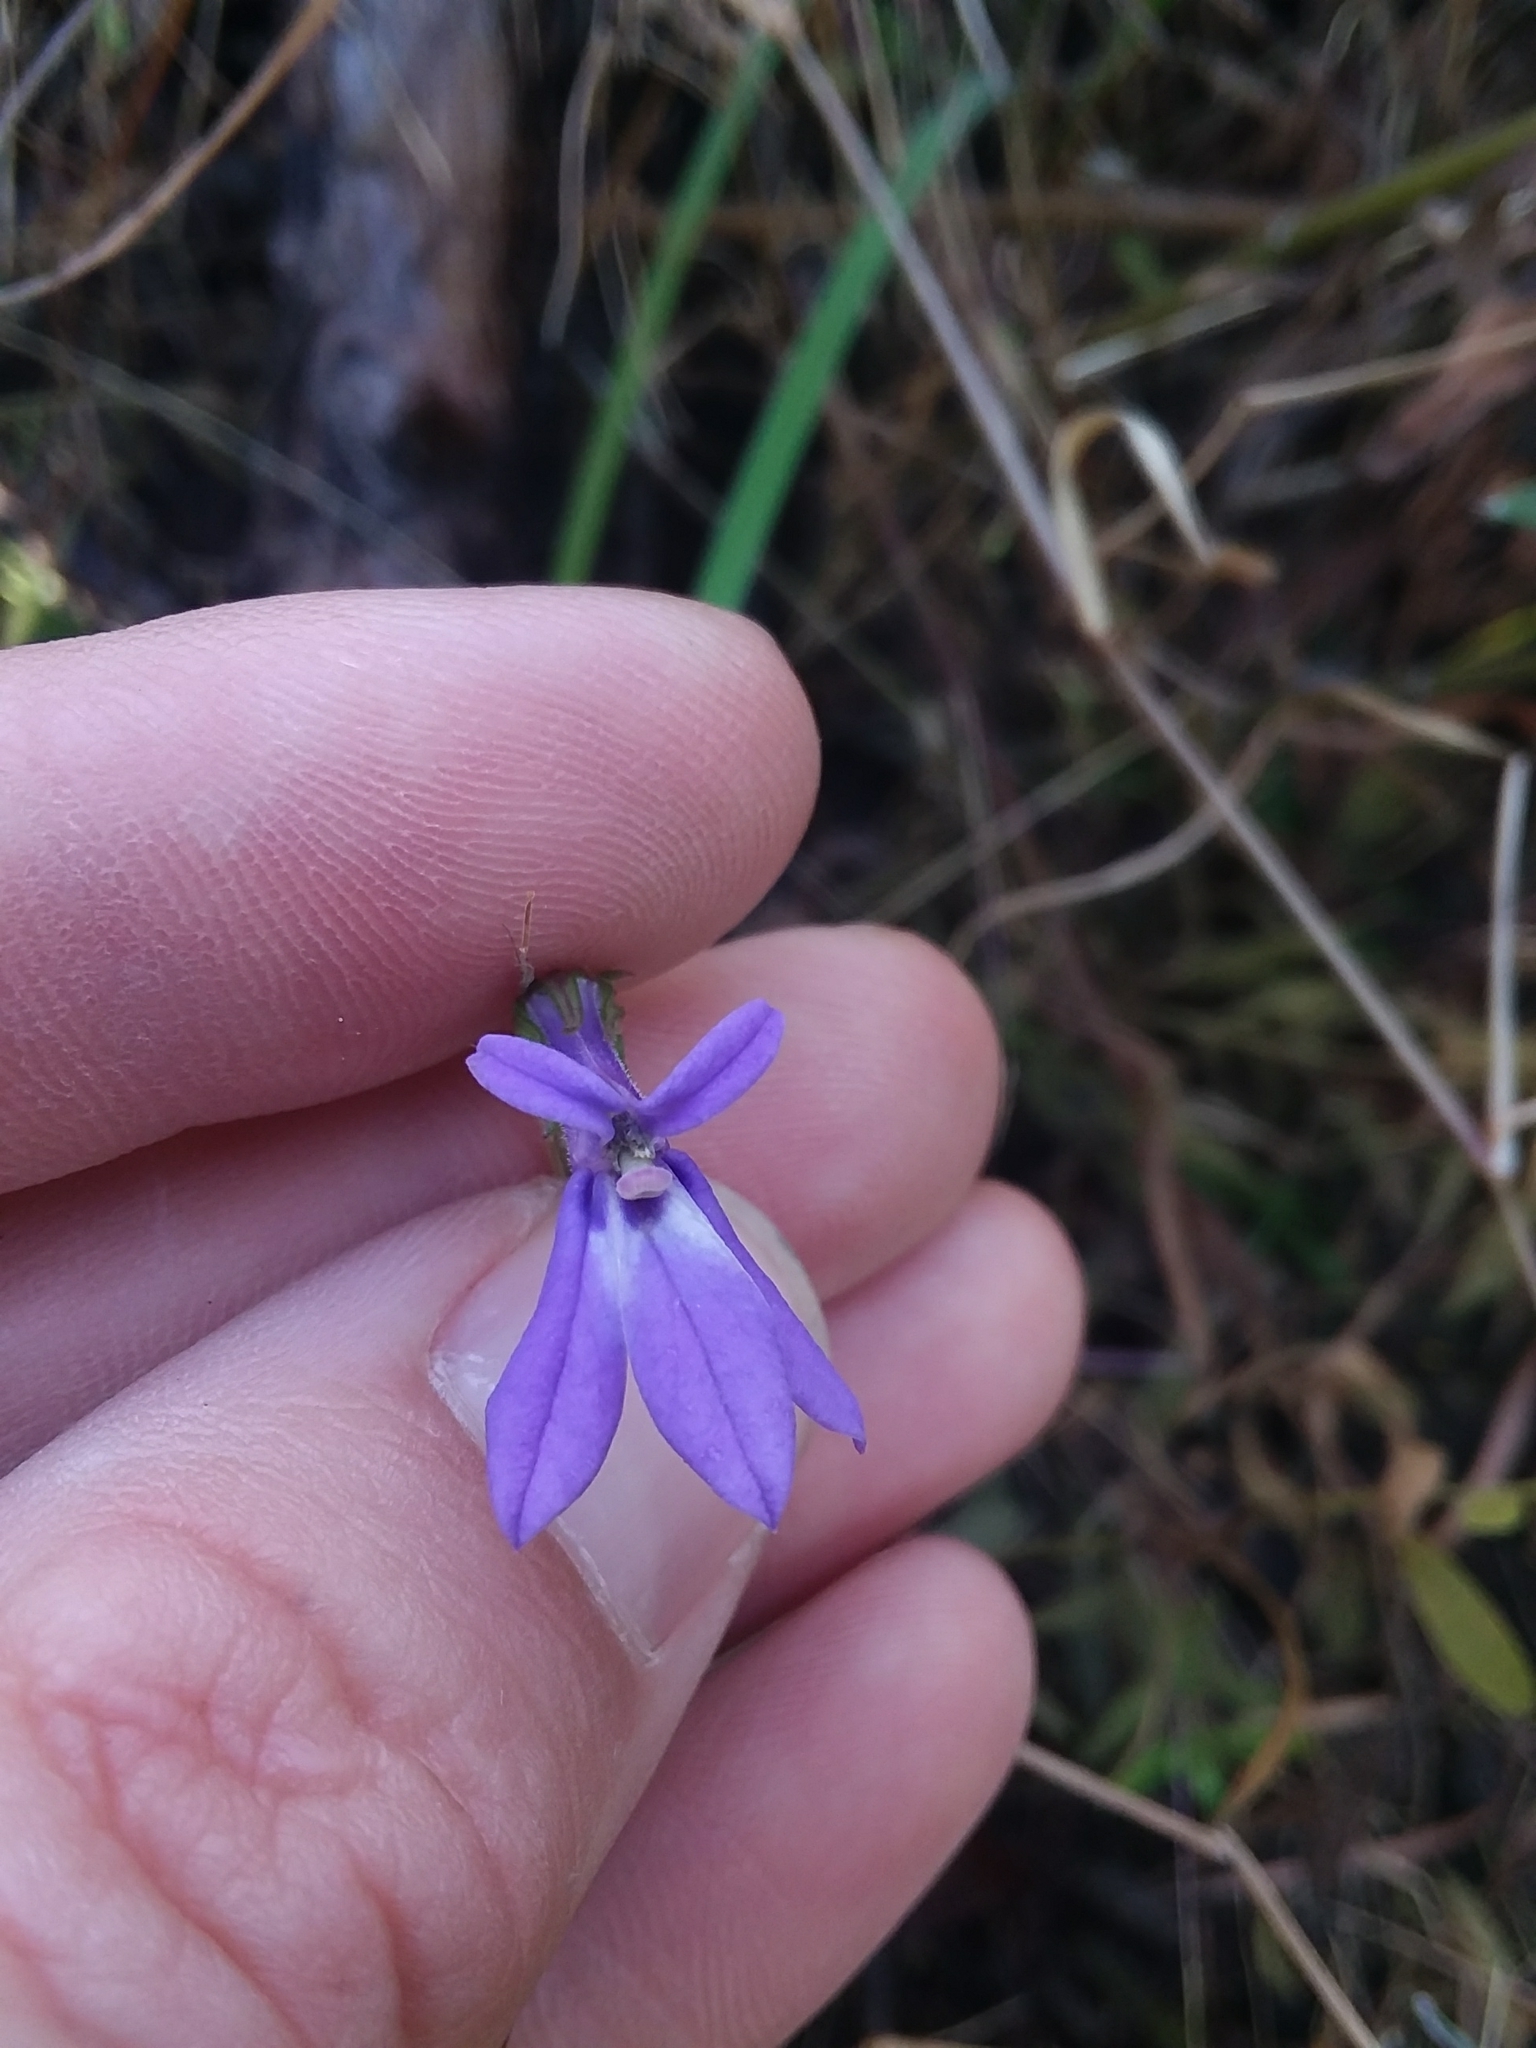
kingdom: Plantae
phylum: Tracheophyta
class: Magnoliopsida
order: Asterales
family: Campanulaceae
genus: Lobelia
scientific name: Lobelia puberula
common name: Purple dewdrop
